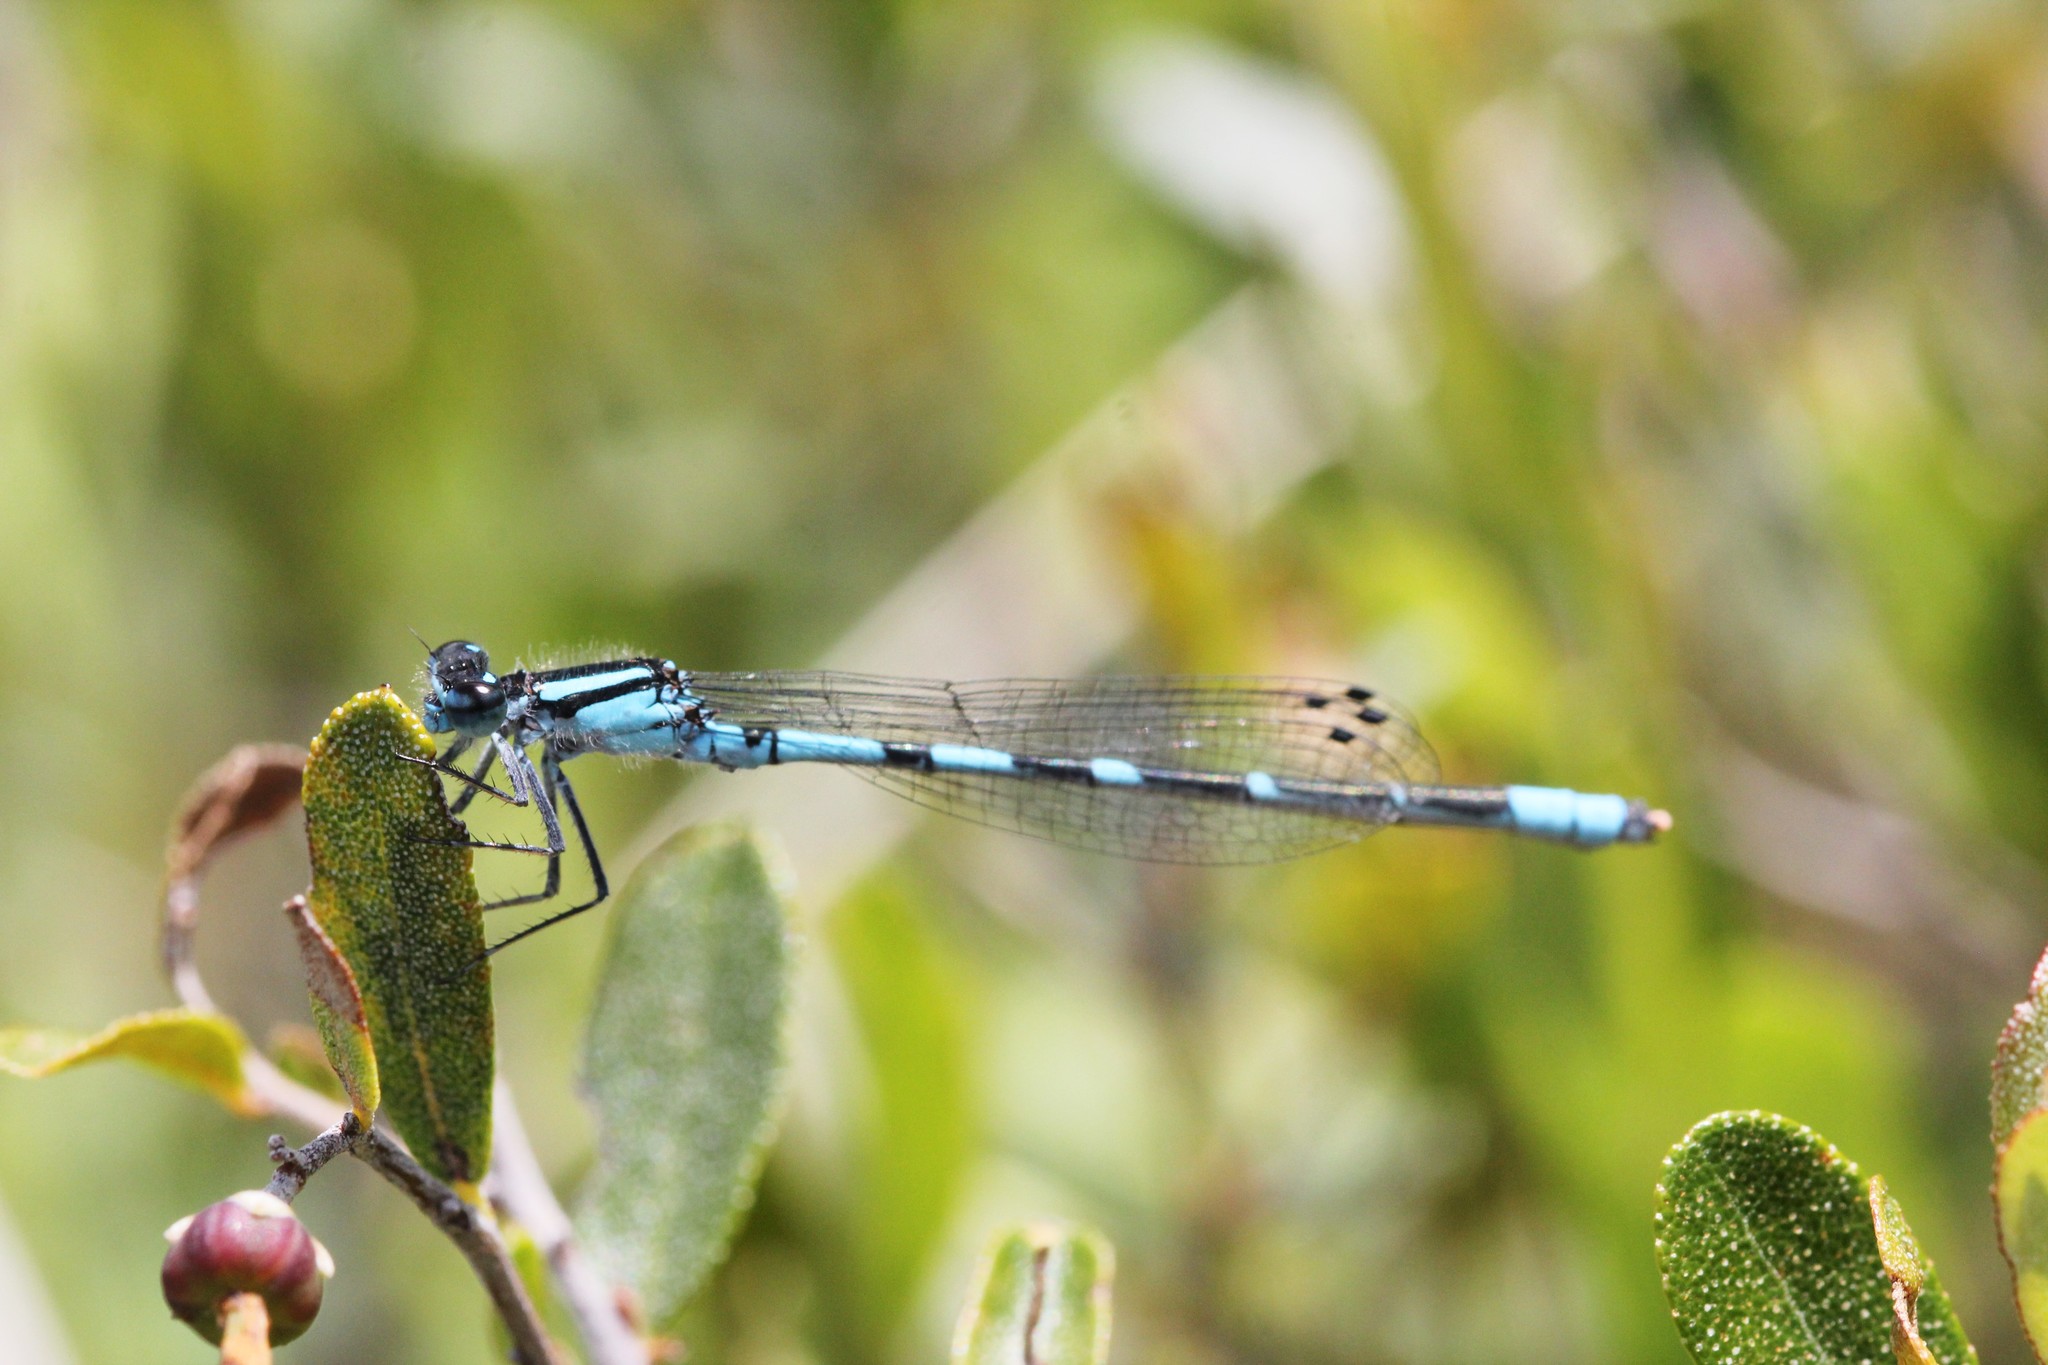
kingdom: Animalia
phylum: Arthropoda
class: Insecta
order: Odonata
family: Coenagrionidae
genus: Enallagma
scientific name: Enallagma ebrium
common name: Marsh bluet
